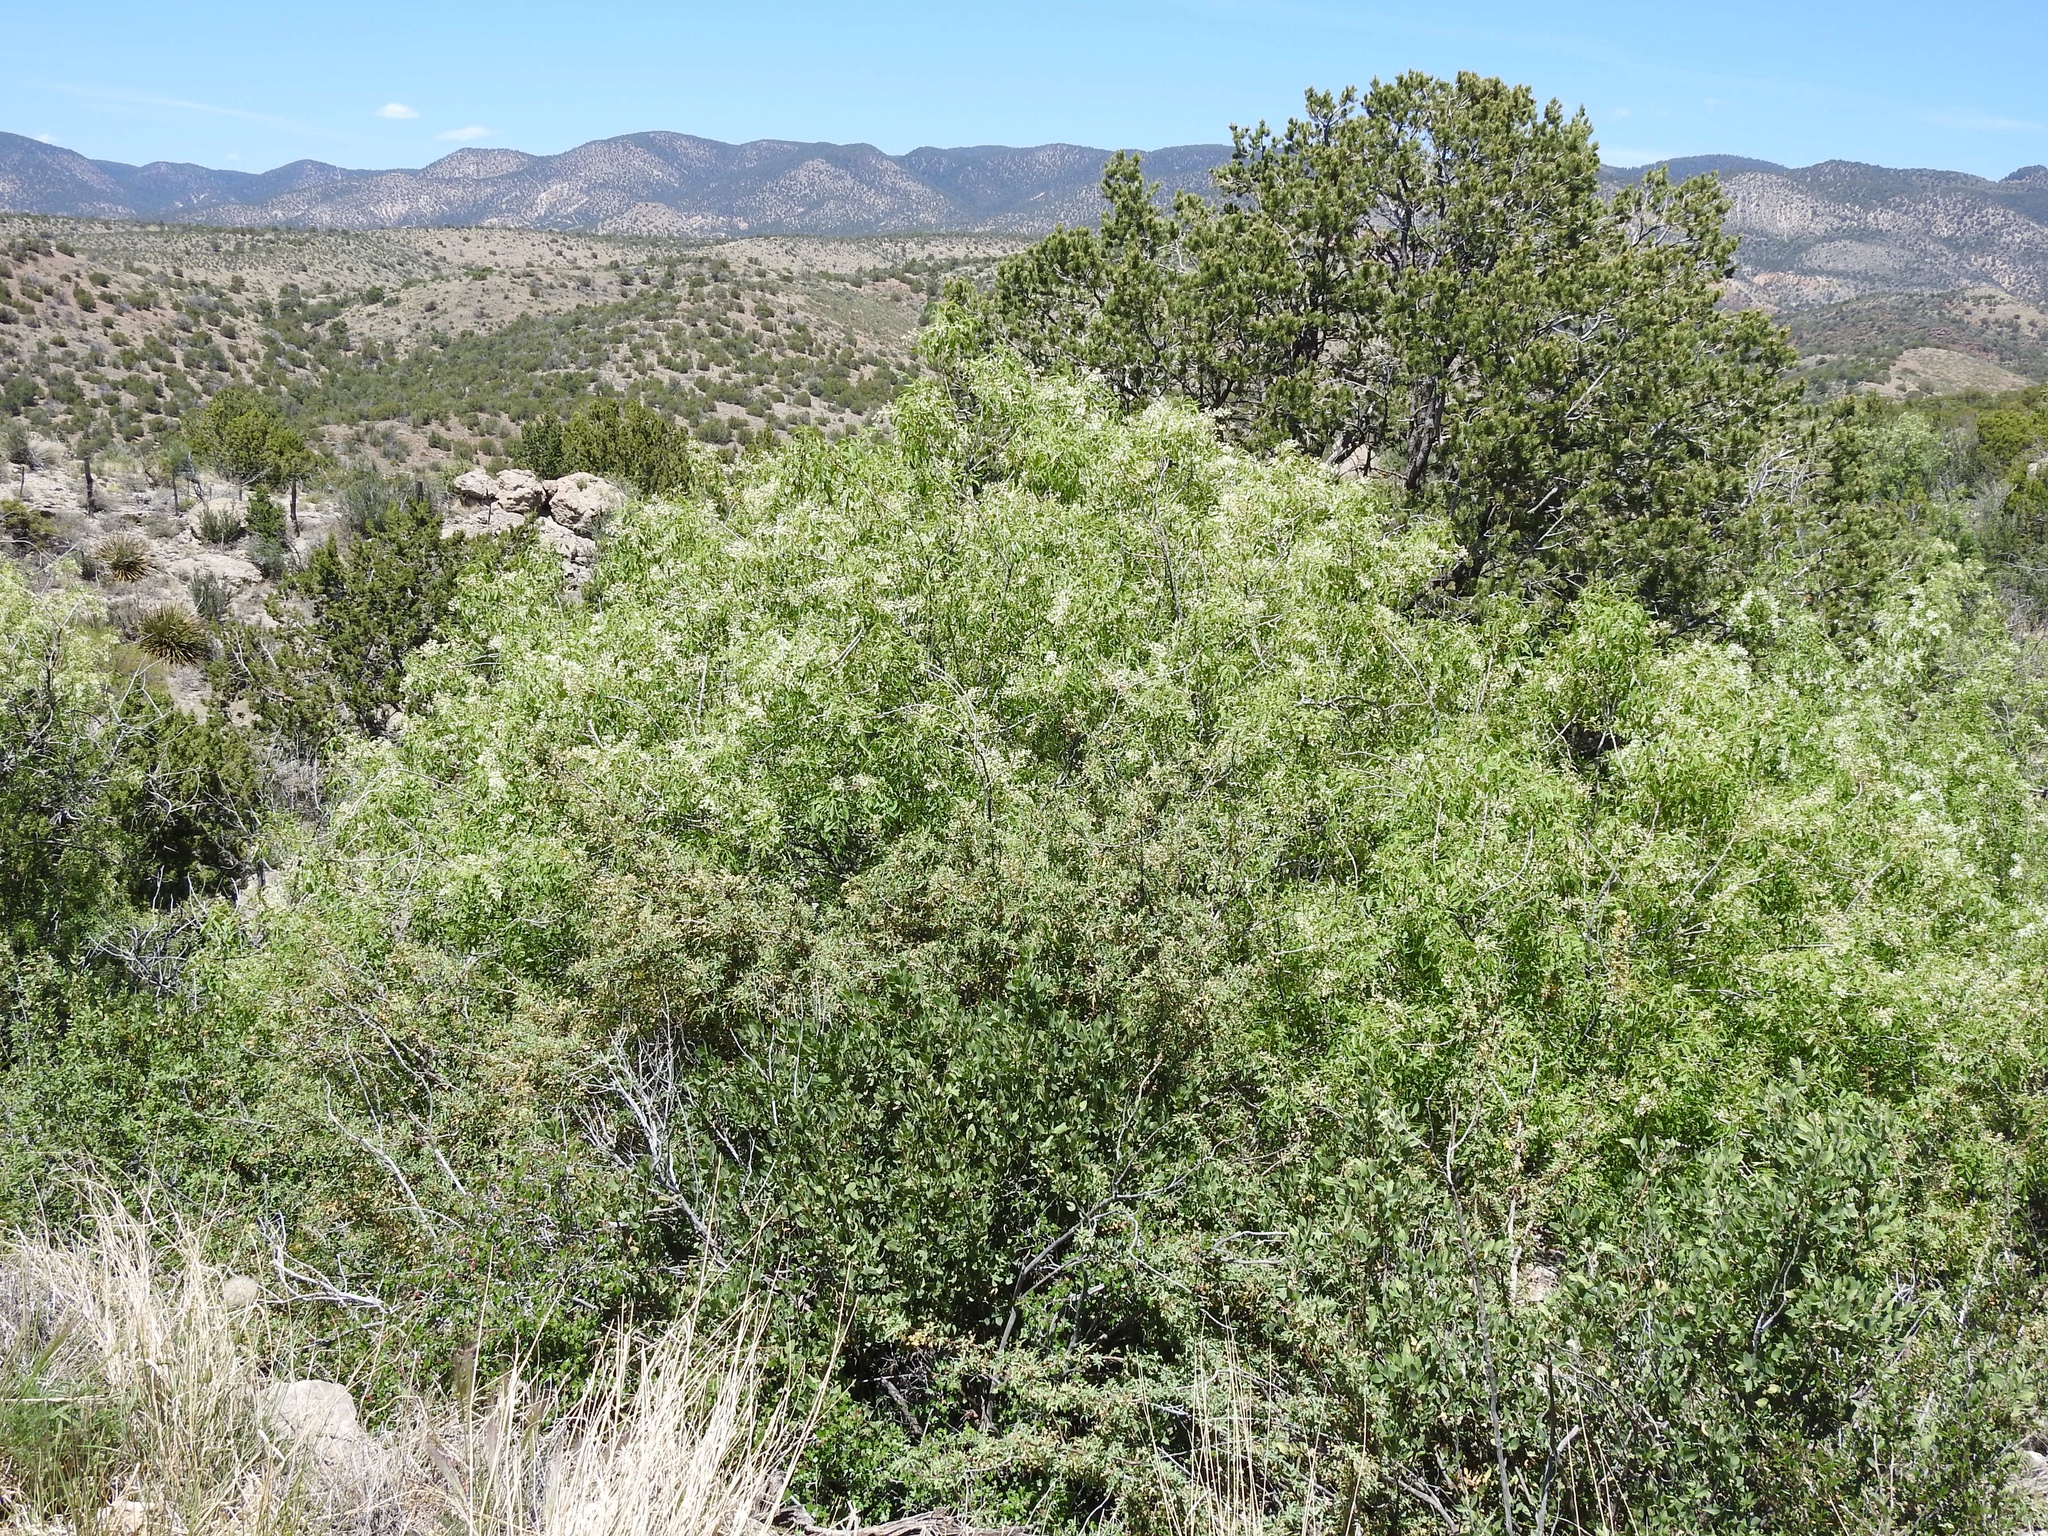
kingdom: Plantae
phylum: Tracheophyta
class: Magnoliopsida
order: Lamiales
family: Oleaceae
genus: Fraxinus
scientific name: Fraxinus cuspidata
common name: Fragrant ash
